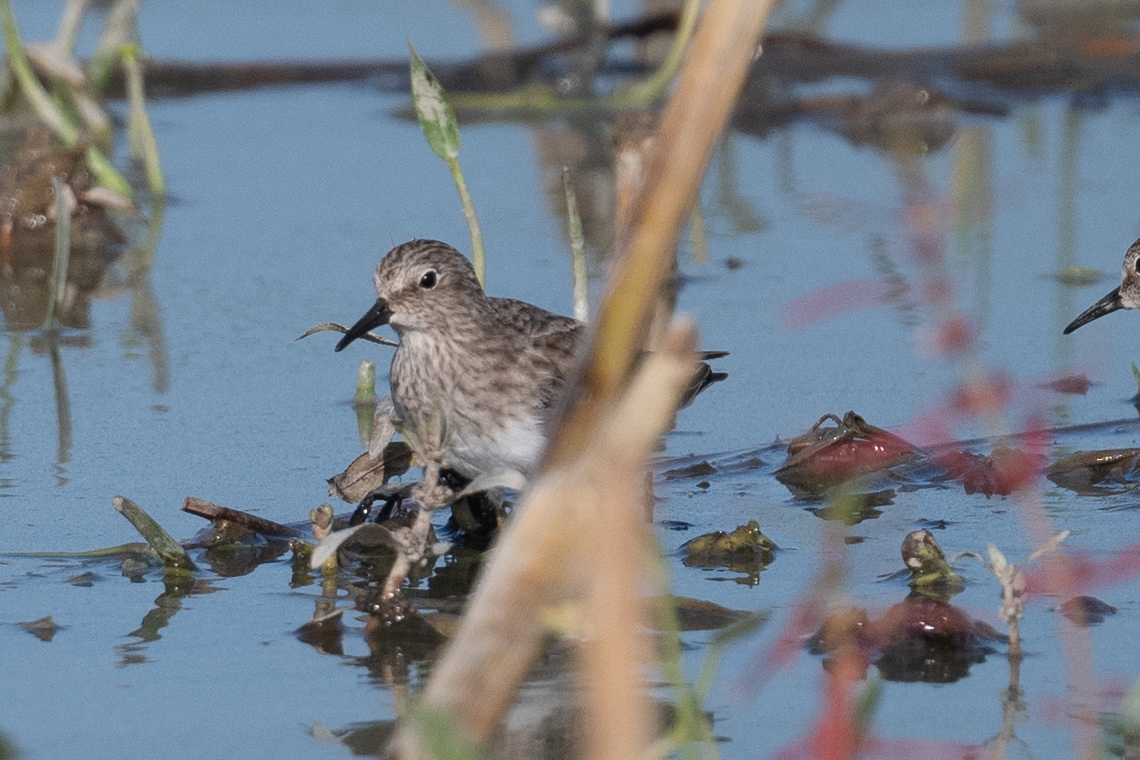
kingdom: Animalia
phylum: Chordata
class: Aves
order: Charadriiformes
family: Scolopacidae
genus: Calidris
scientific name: Calidris minutilla
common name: Least sandpiper
